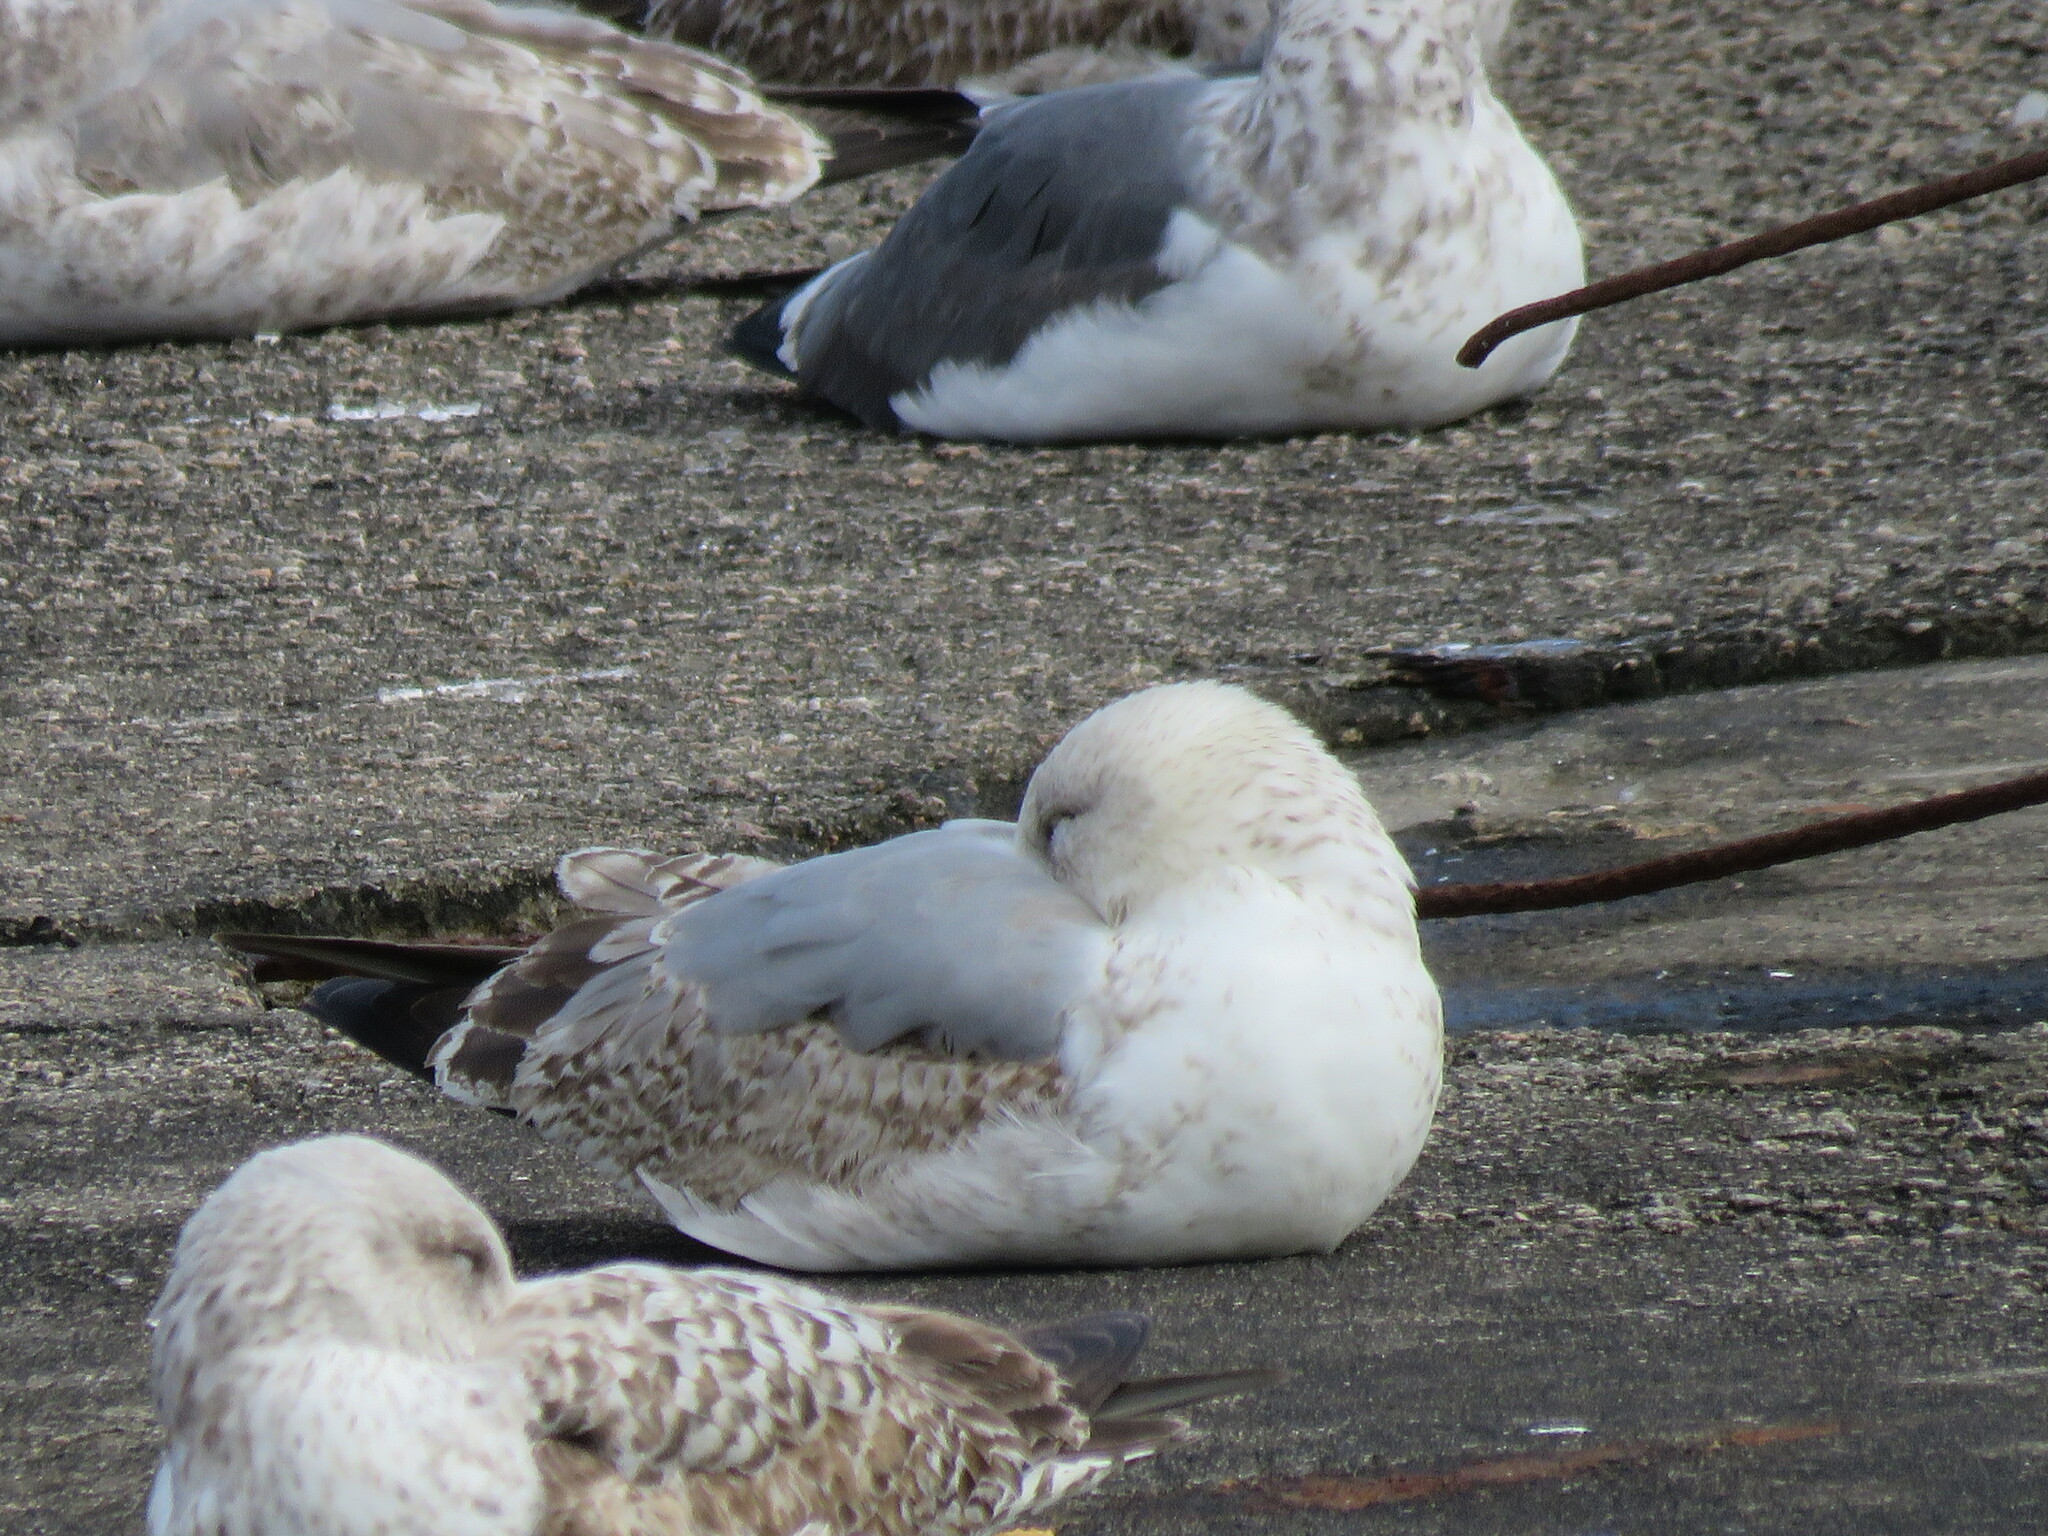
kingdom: Animalia
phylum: Chordata
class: Aves
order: Charadriiformes
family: Laridae
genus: Larus
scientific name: Larus michahellis
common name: Yellow-legged gull
